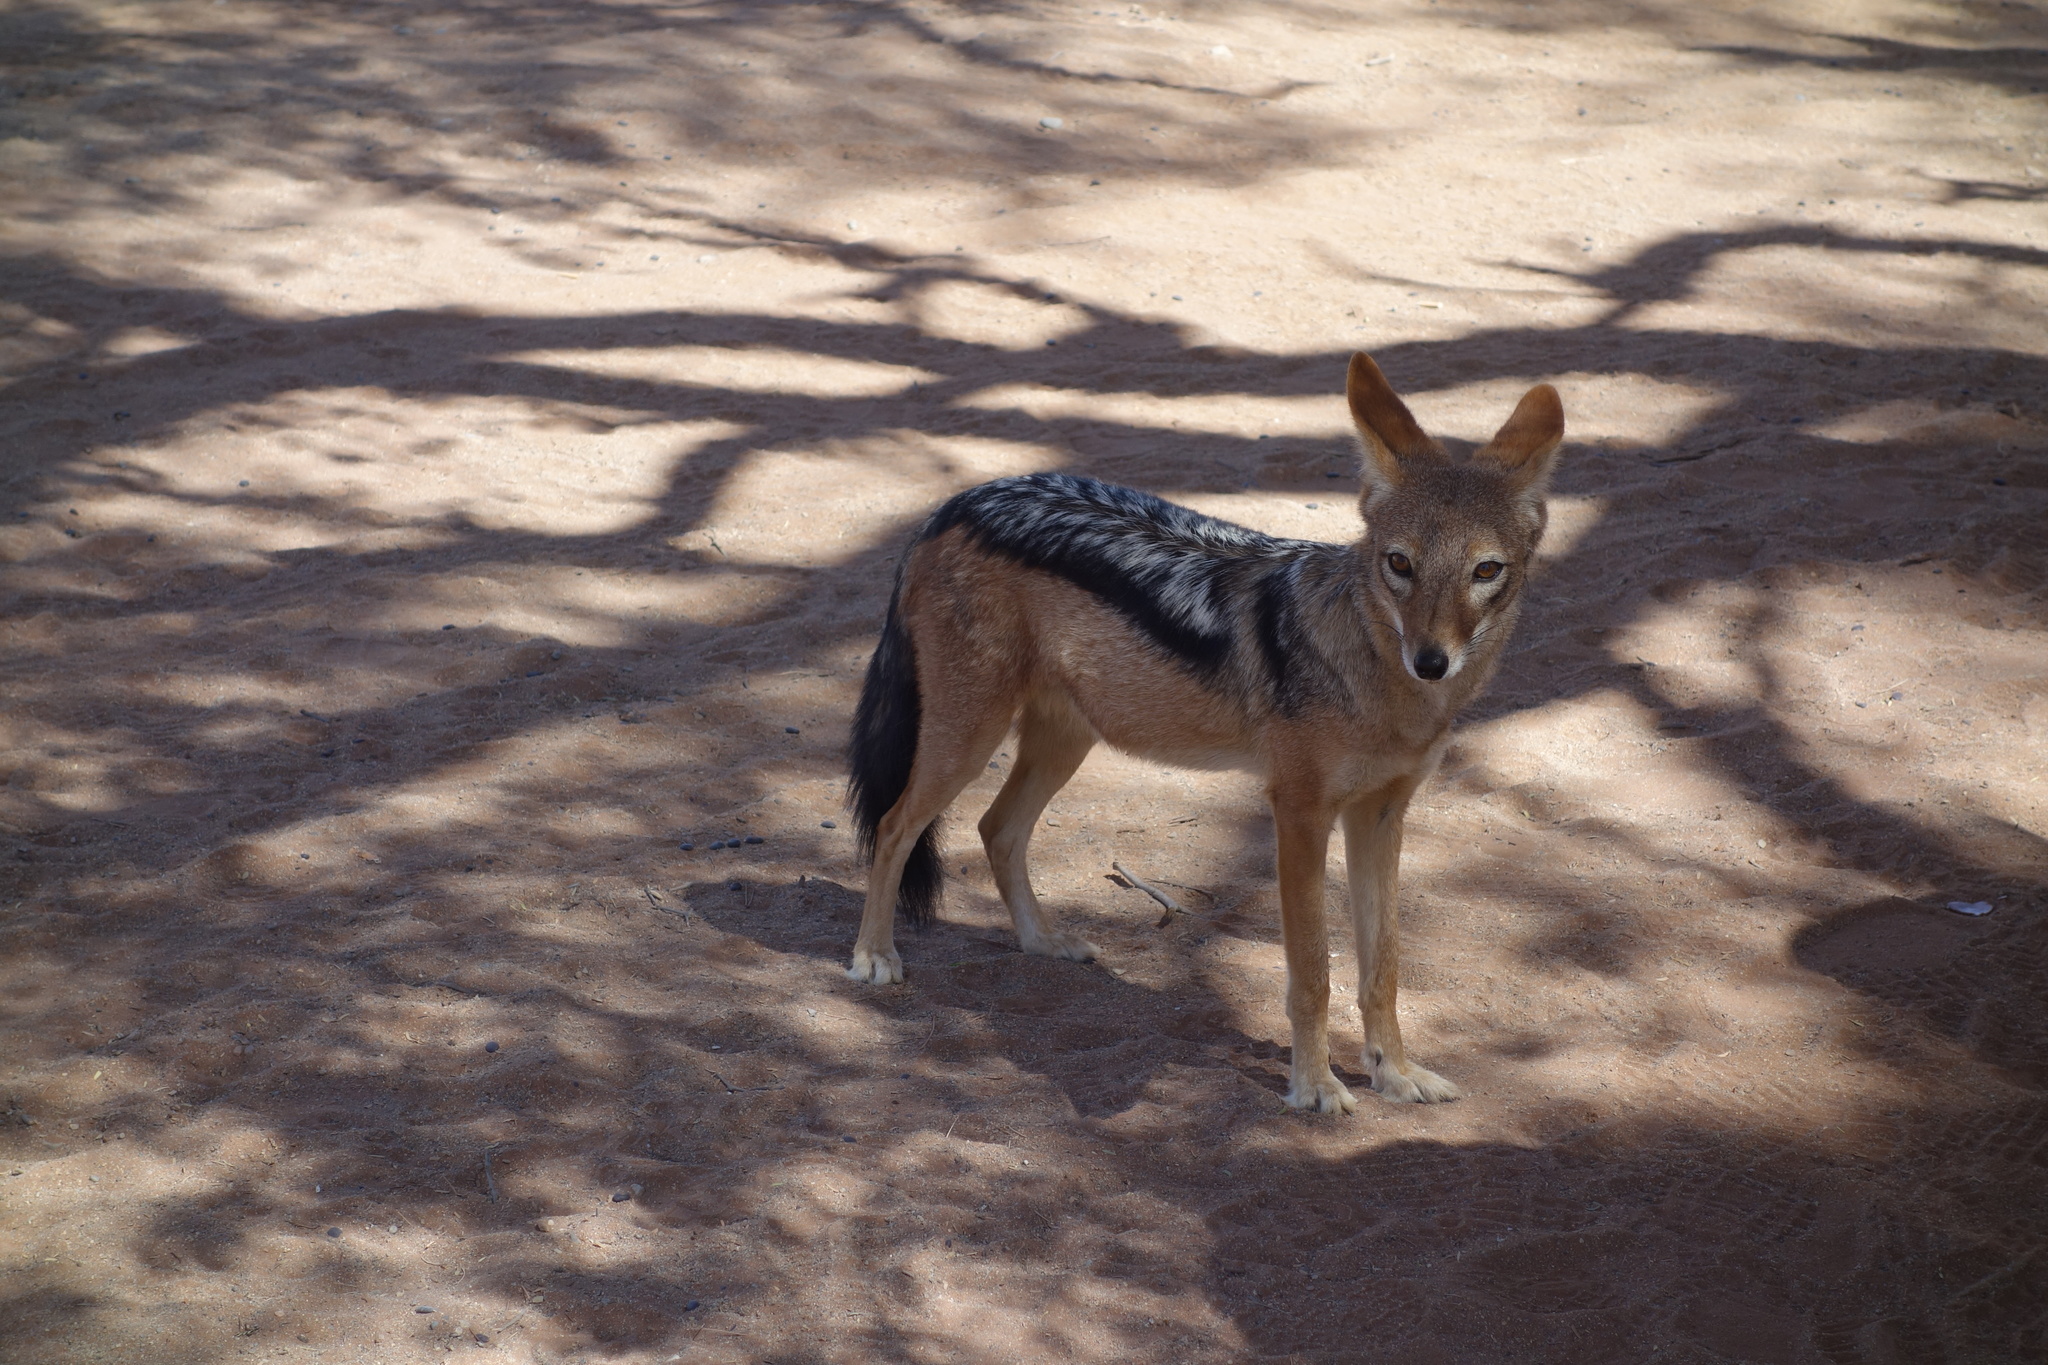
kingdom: Animalia
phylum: Chordata
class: Mammalia
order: Carnivora
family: Canidae
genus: Lupulella
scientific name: Lupulella
